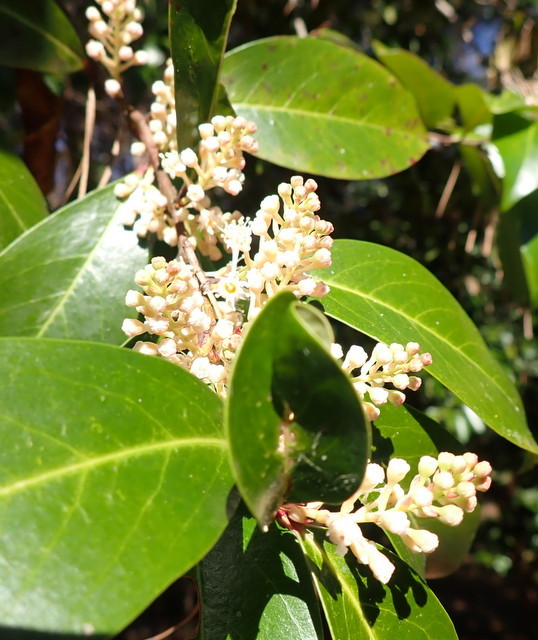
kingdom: Plantae
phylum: Tracheophyta
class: Magnoliopsida
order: Rosales
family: Rosaceae
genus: Prunus
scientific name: Prunus caroliniana
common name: Carolina laurel cherry
